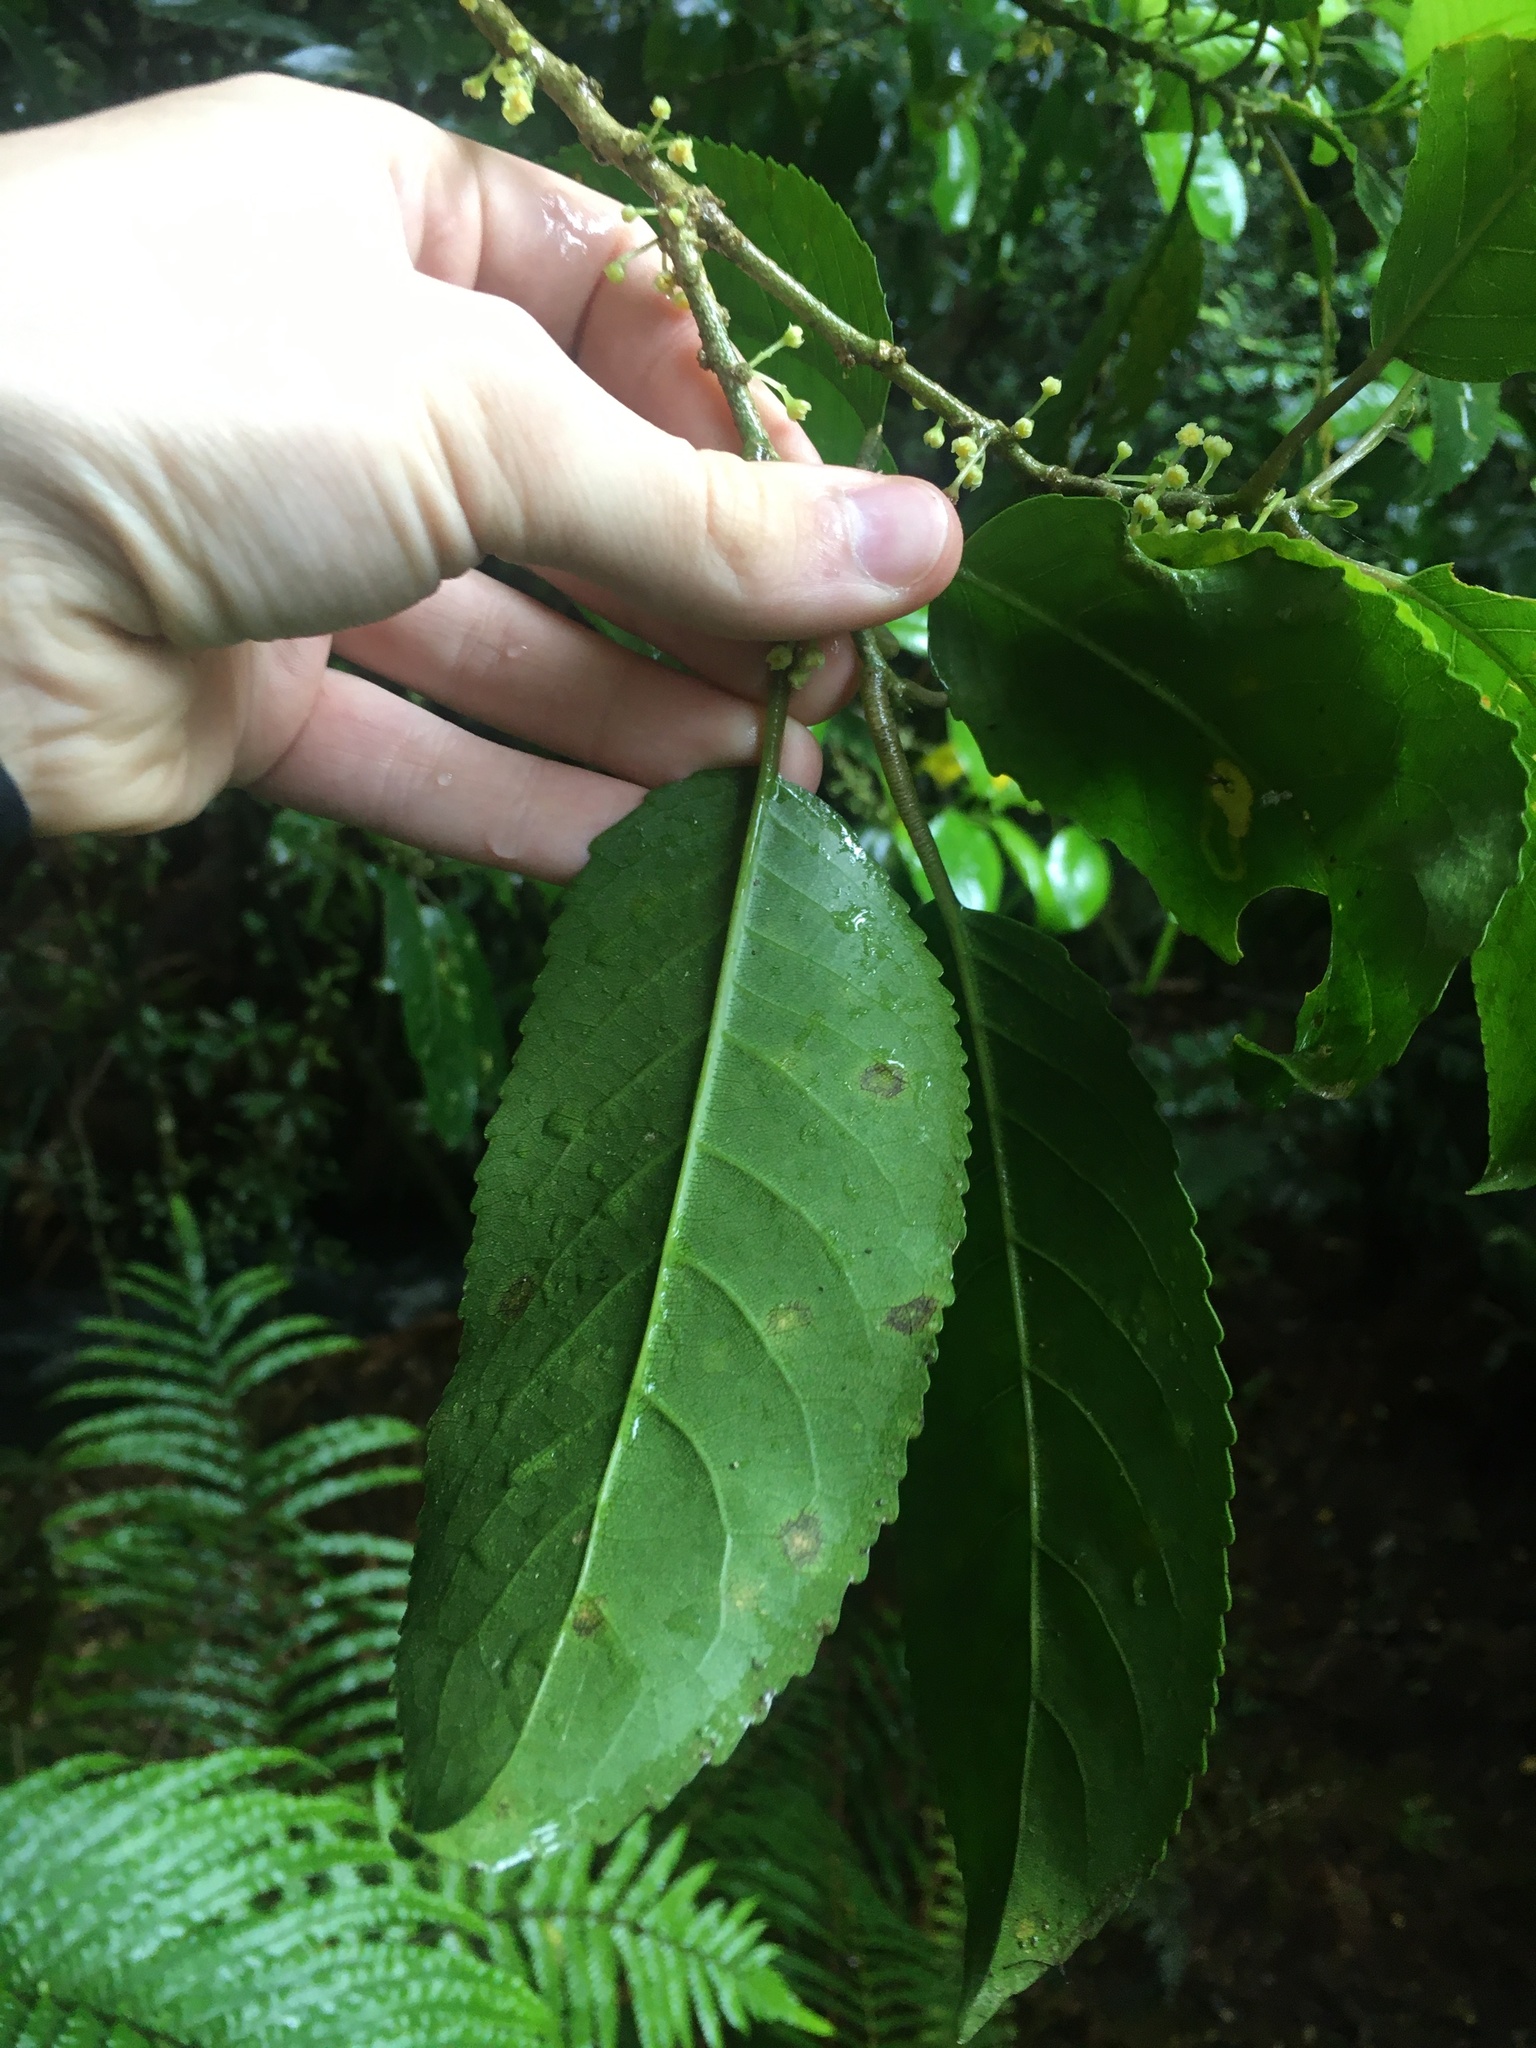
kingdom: Plantae
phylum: Tracheophyta
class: Magnoliopsida
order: Malpighiales
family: Violaceae
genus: Melicytus
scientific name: Melicytus ramiflorus
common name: Mahoe
